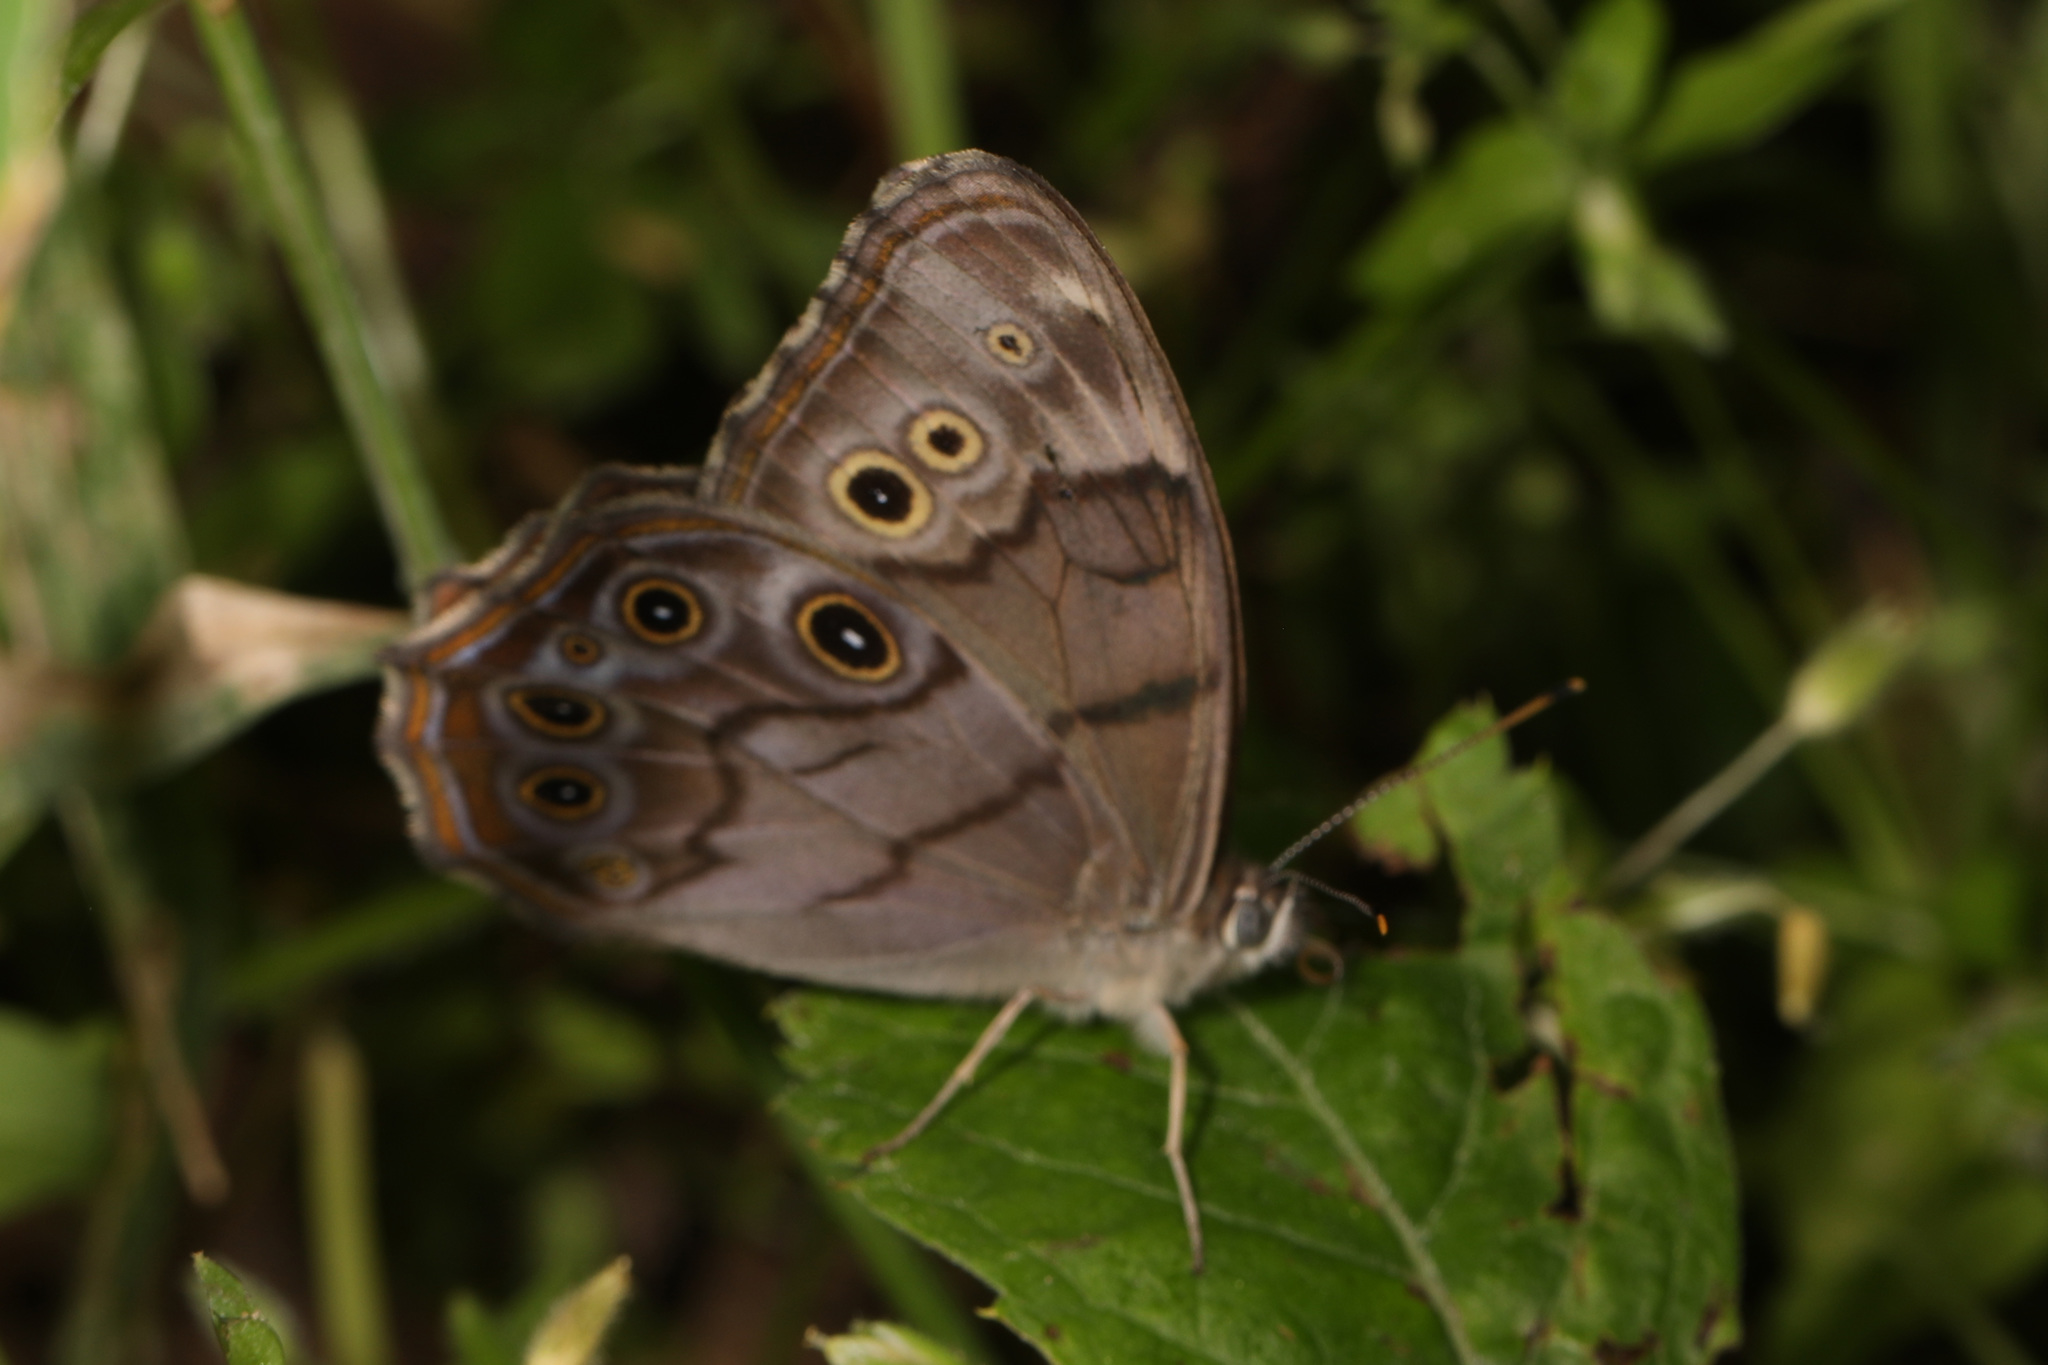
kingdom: Animalia
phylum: Arthropoda
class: Insecta
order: Lepidoptera
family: Nymphalidae
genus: Lethe
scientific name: Lethe anthedon
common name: Northern pearly-eye
